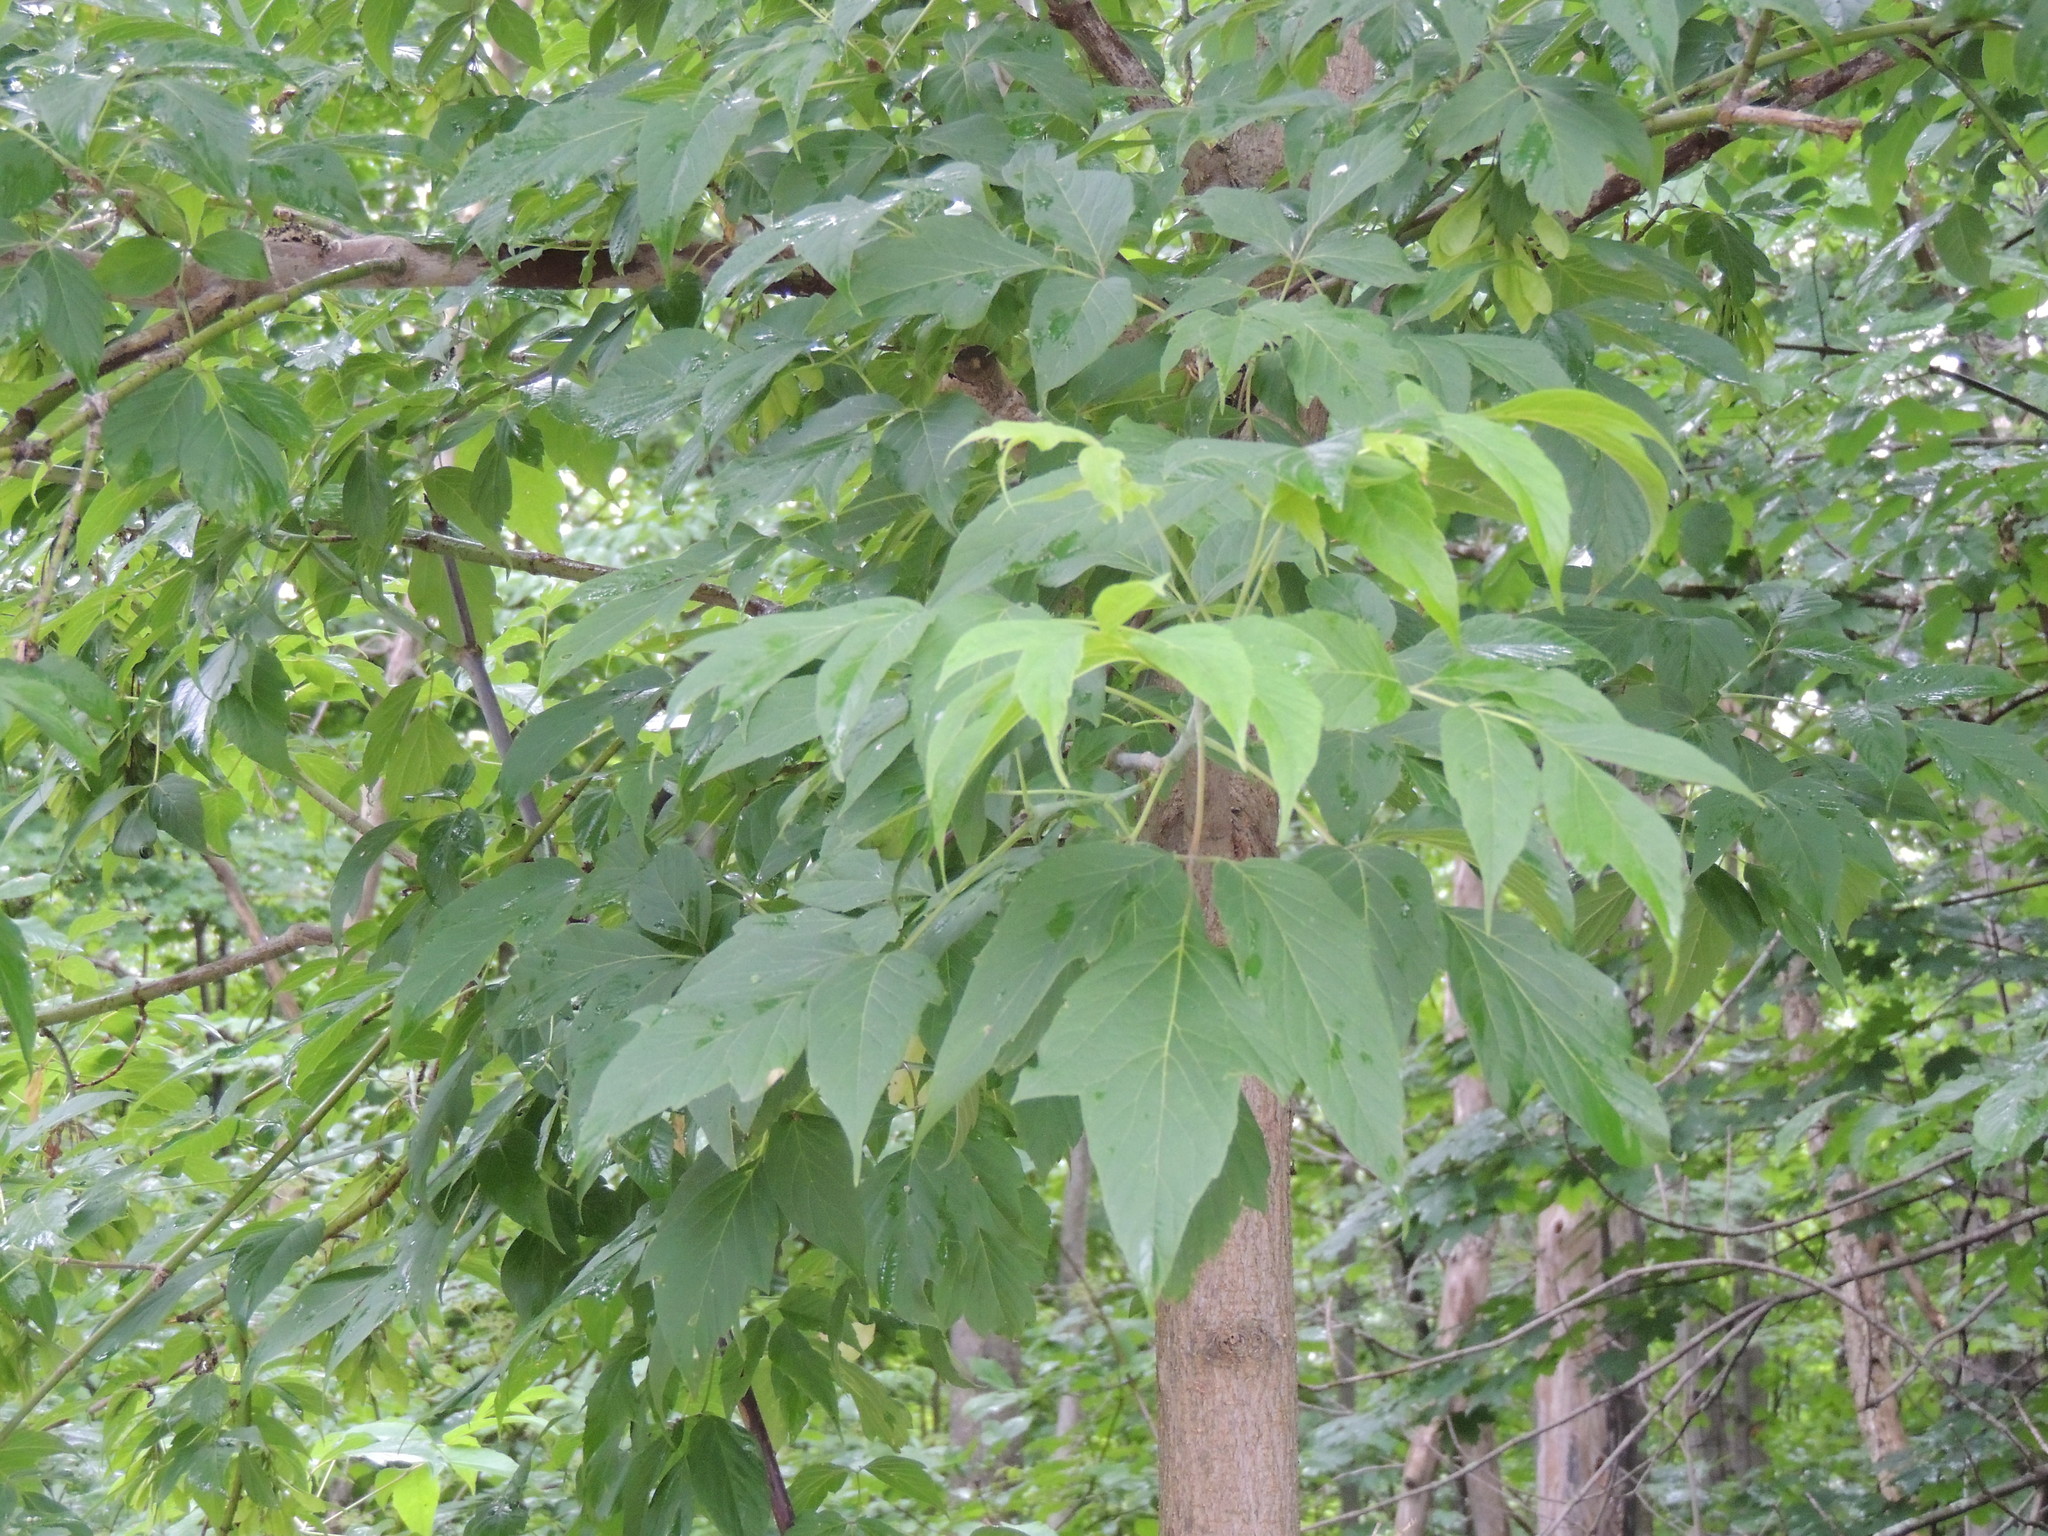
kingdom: Plantae
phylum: Tracheophyta
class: Magnoliopsida
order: Sapindales
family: Sapindaceae
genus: Acer
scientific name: Acer negundo
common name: Ashleaf maple
